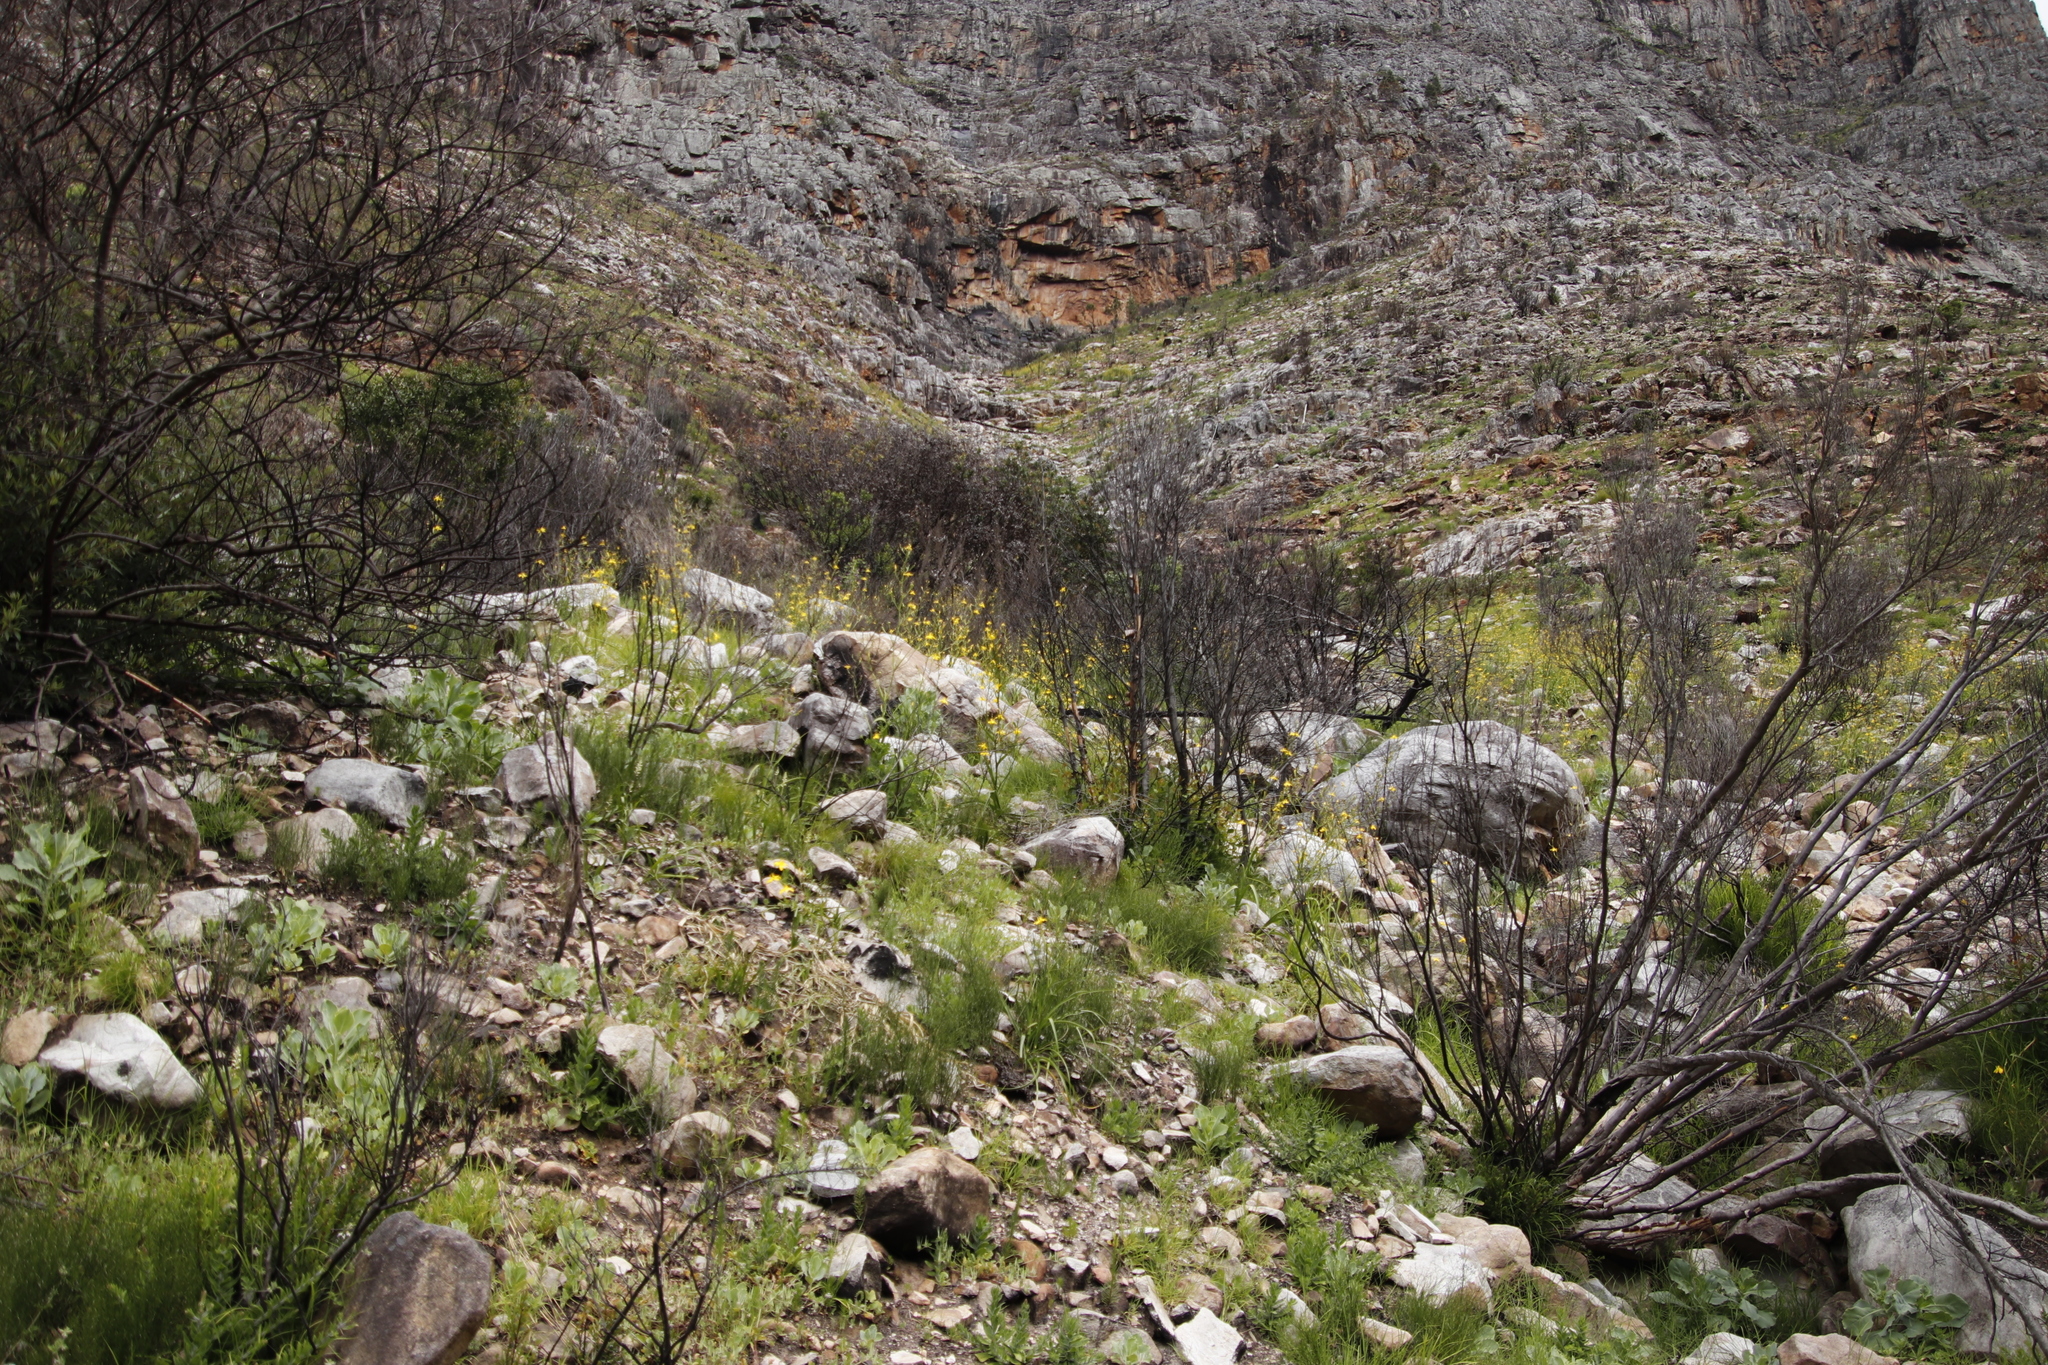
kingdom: Plantae
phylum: Tracheophyta
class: Liliopsida
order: Asparagales
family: Iridaceae
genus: Moraea
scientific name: Moraea ramosissima
